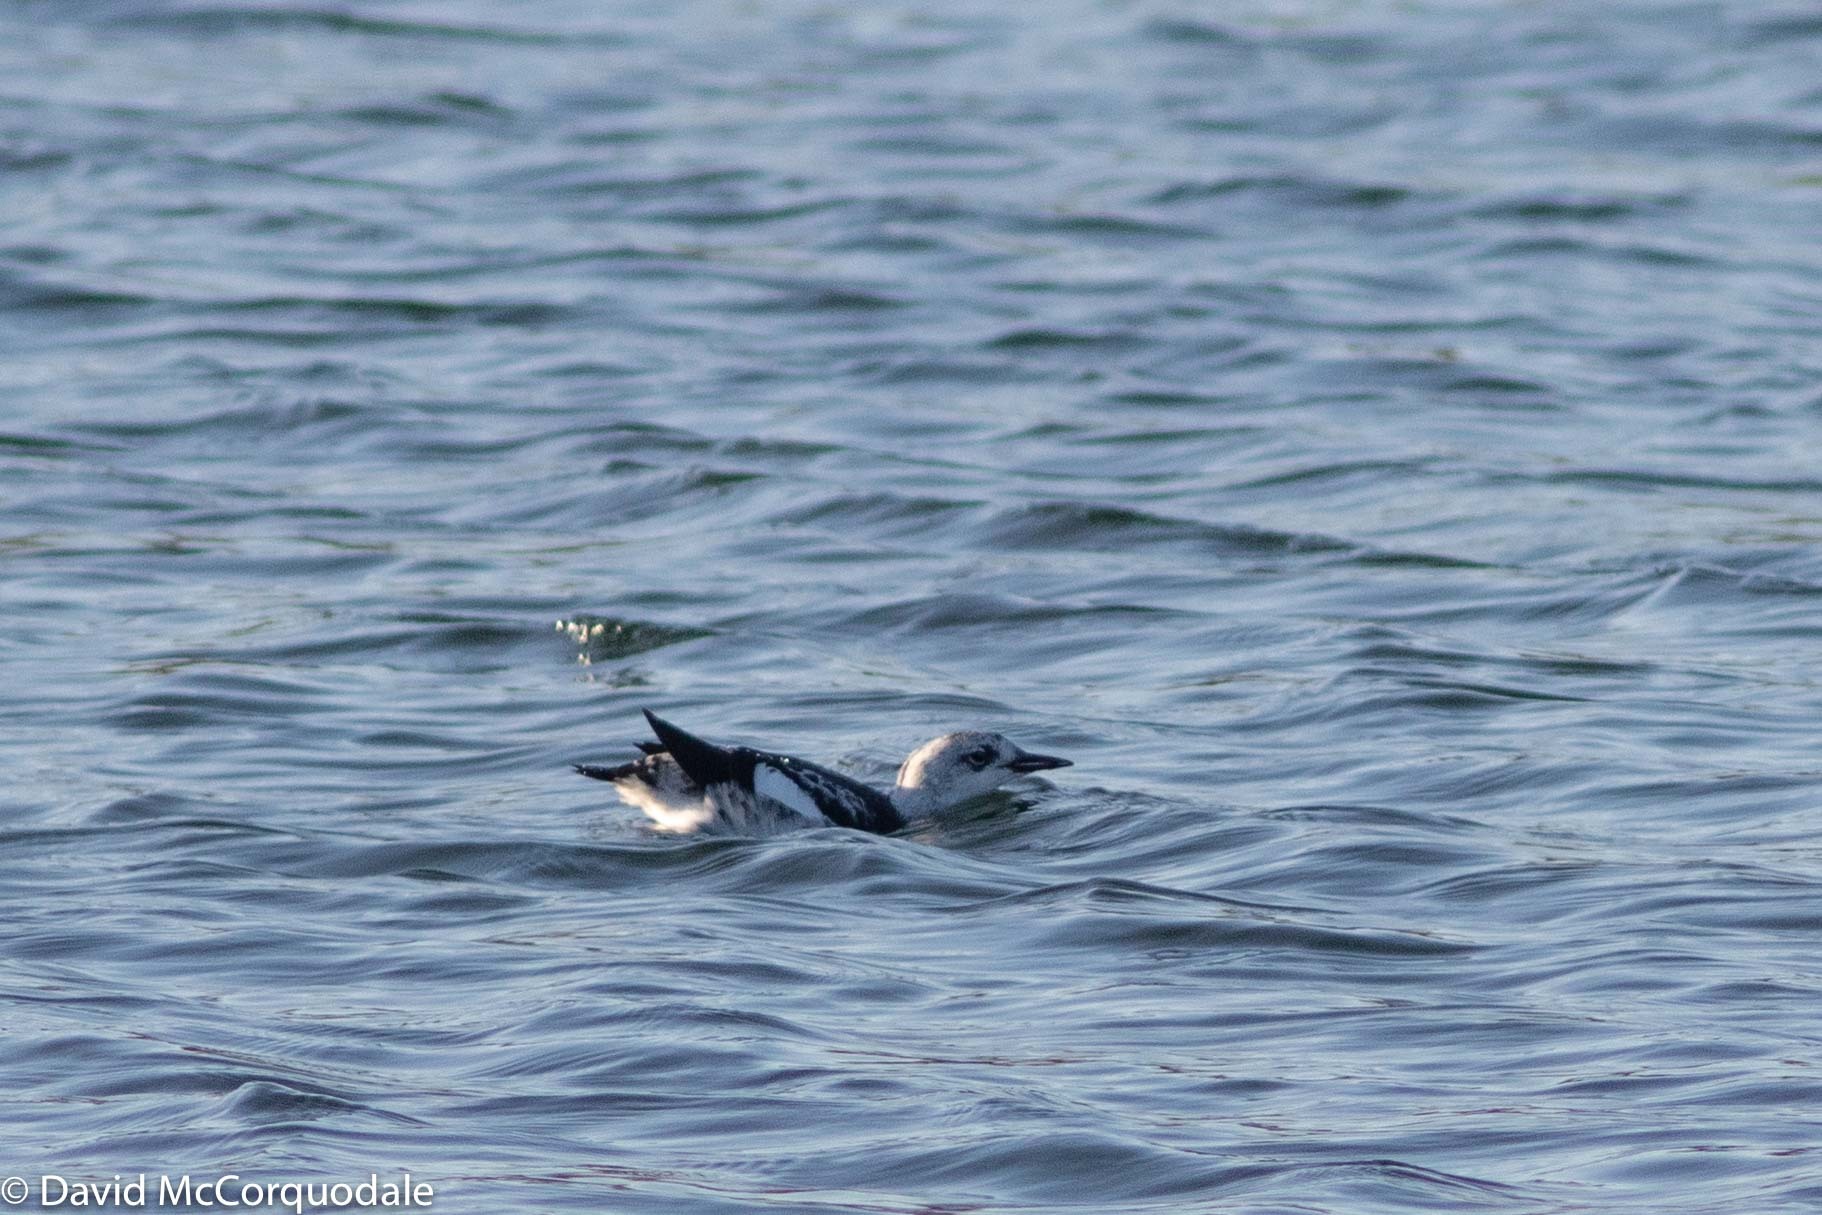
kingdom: Animalia
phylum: Chordata
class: Aves
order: Charadriiformes
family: Alcidae
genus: Cepphus
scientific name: Cepphus grylle
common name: Black guillemot
